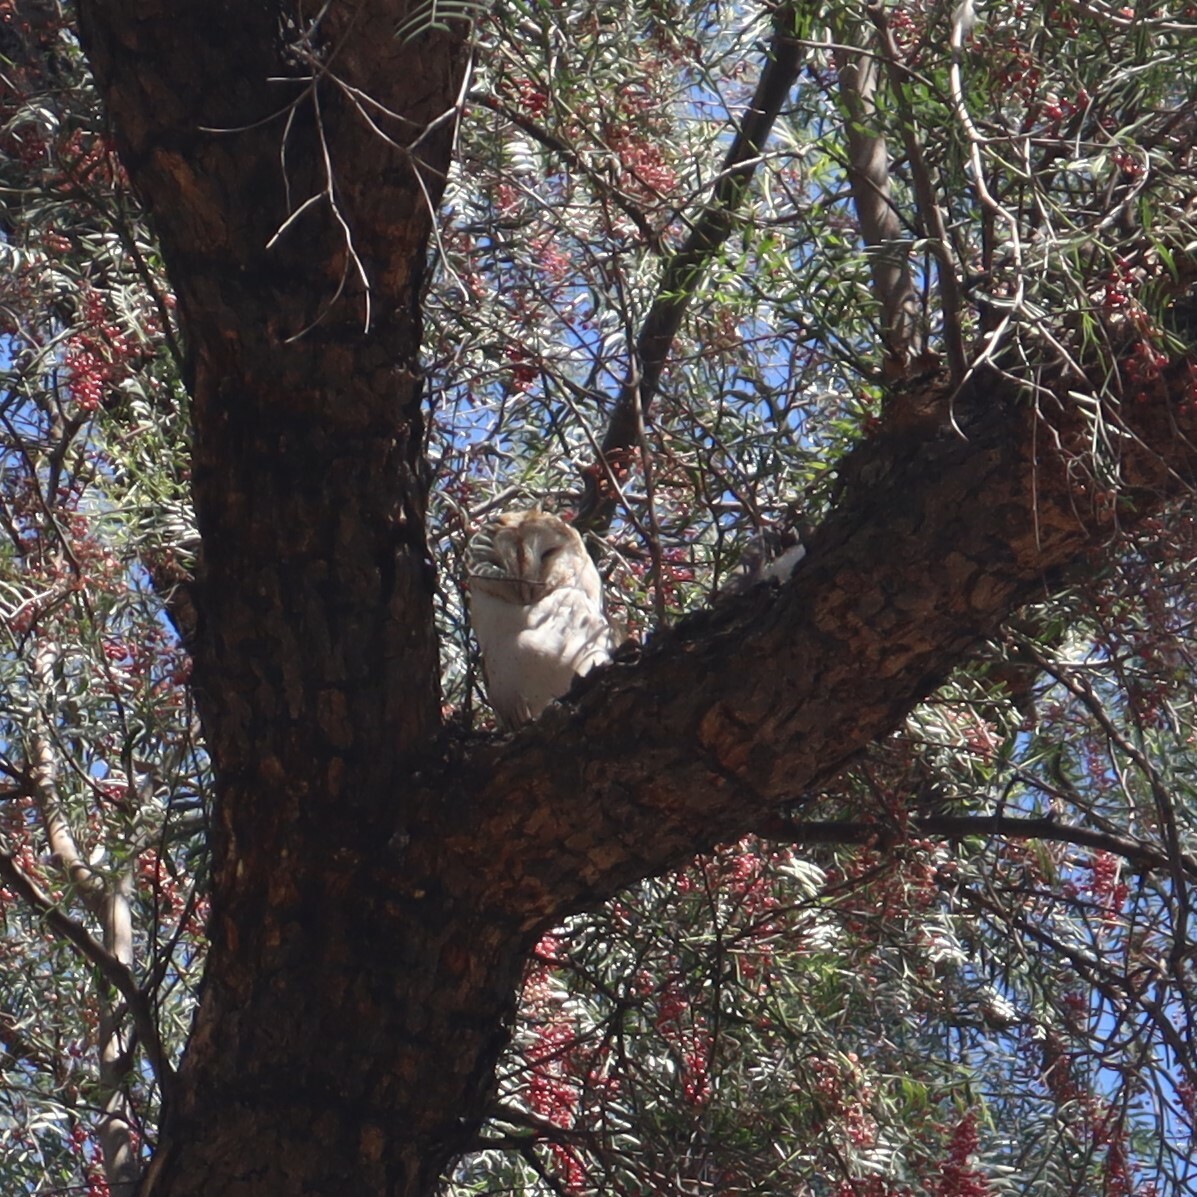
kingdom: Animalia
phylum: Chordata
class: Aves
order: Strigiformes
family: Tytonidae
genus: Tyto
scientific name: Tyto alba
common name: Barn owl
